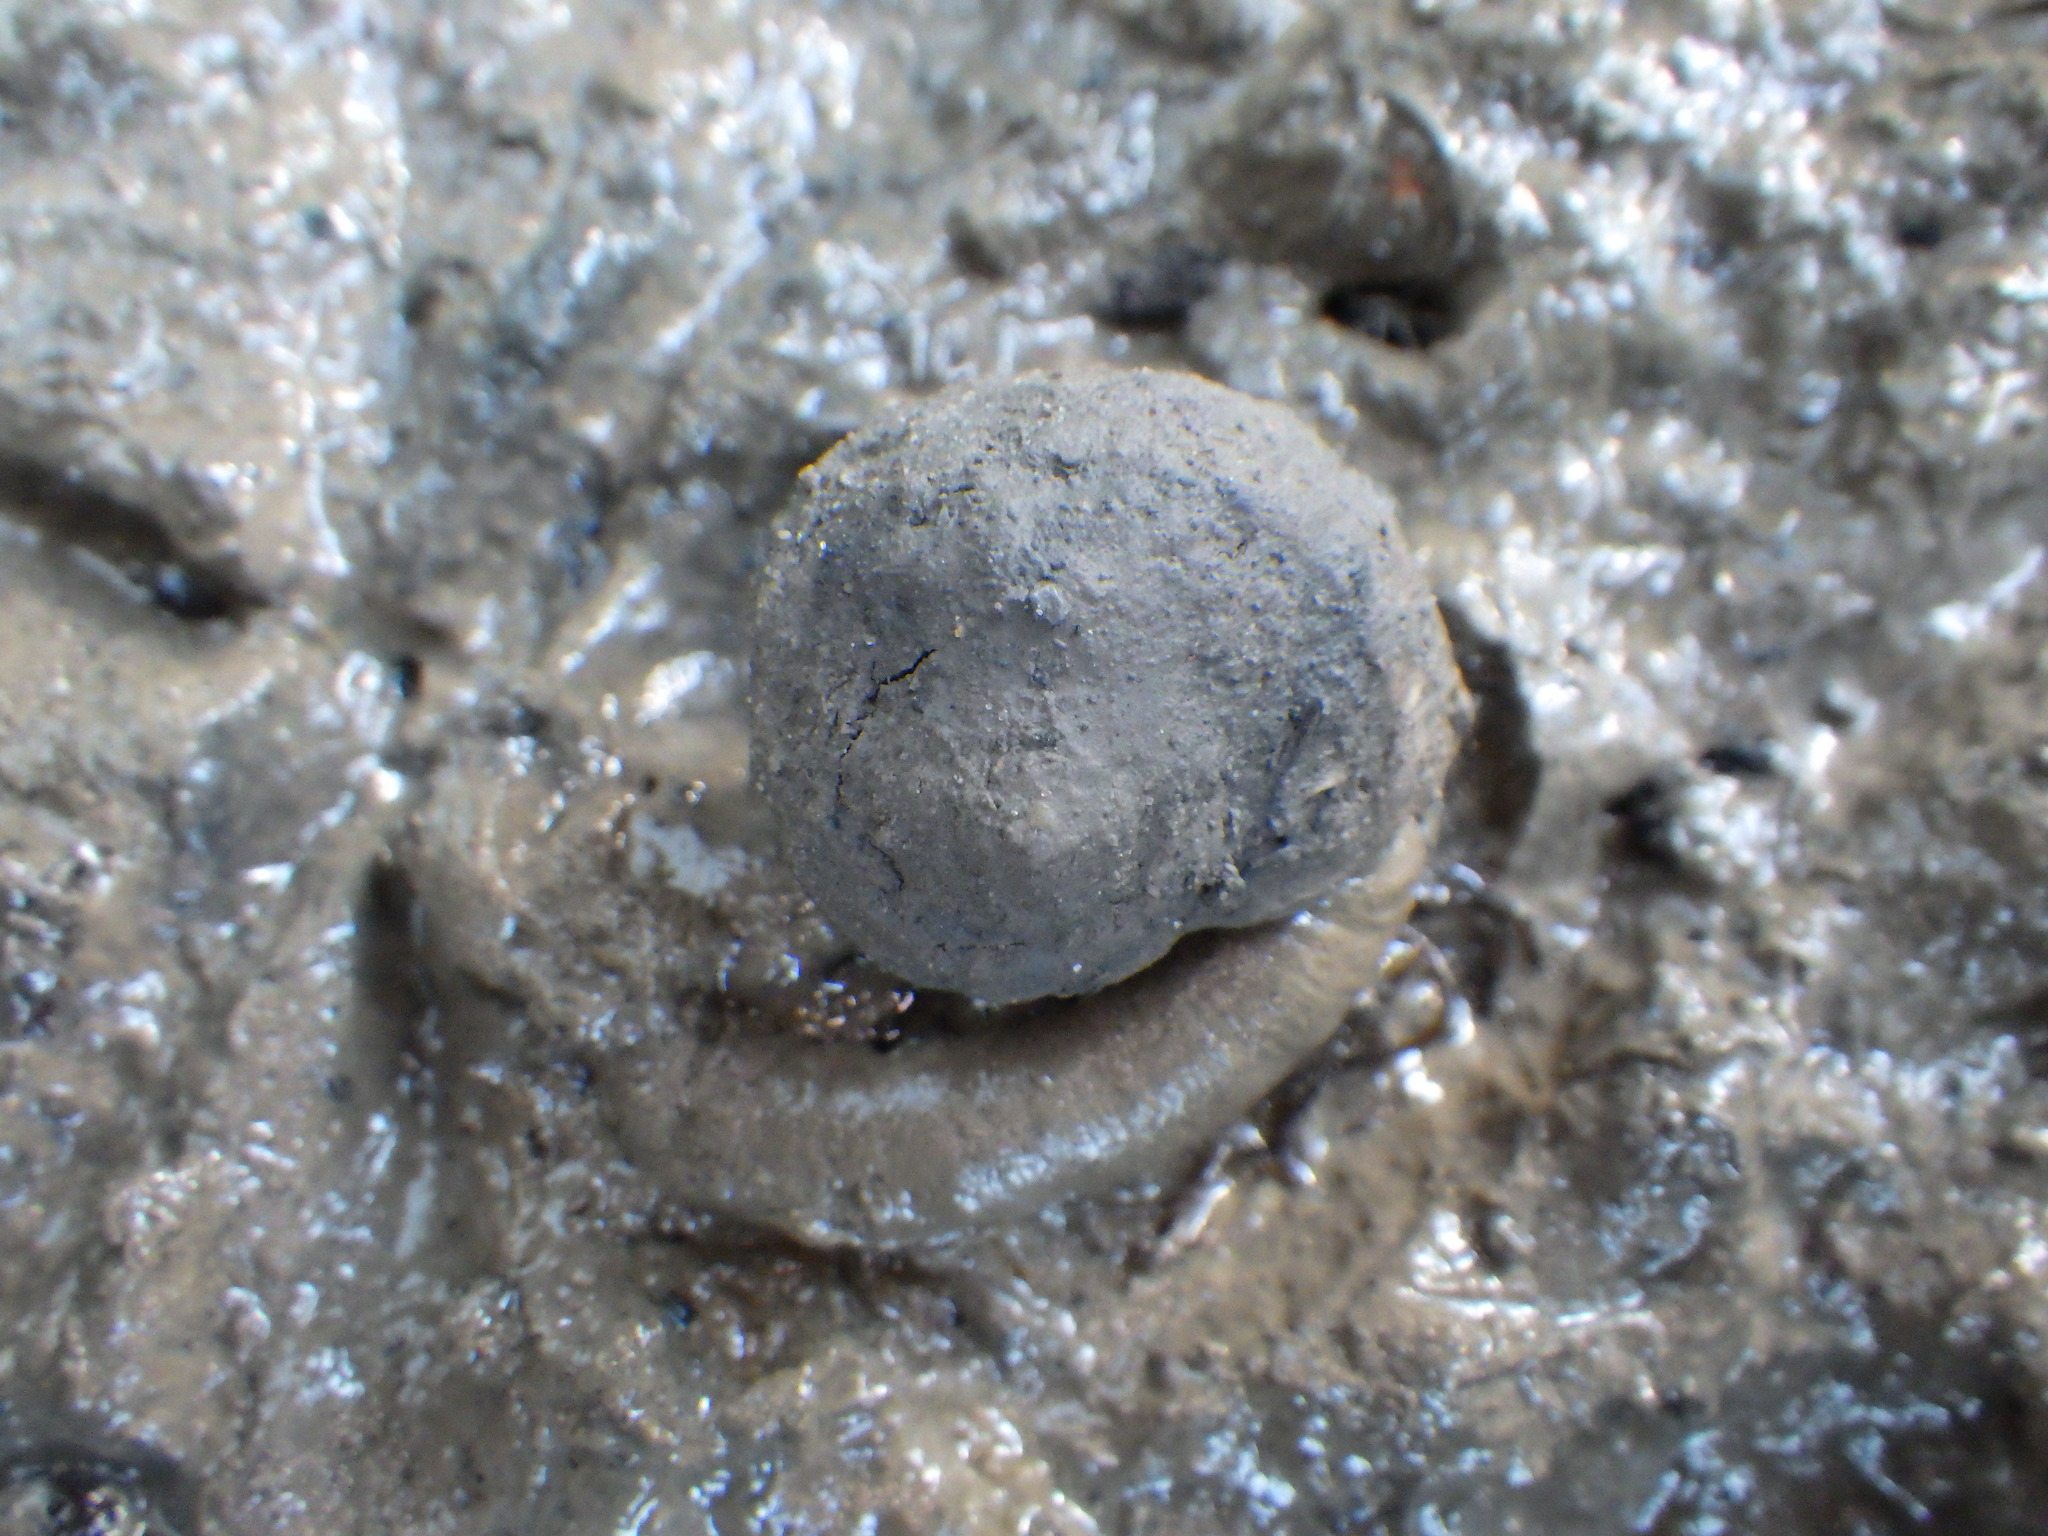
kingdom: Animalia
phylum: Mollusca
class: Gastropoda
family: Amphibolidae
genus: Amphibola
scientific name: Amphibola crenata
